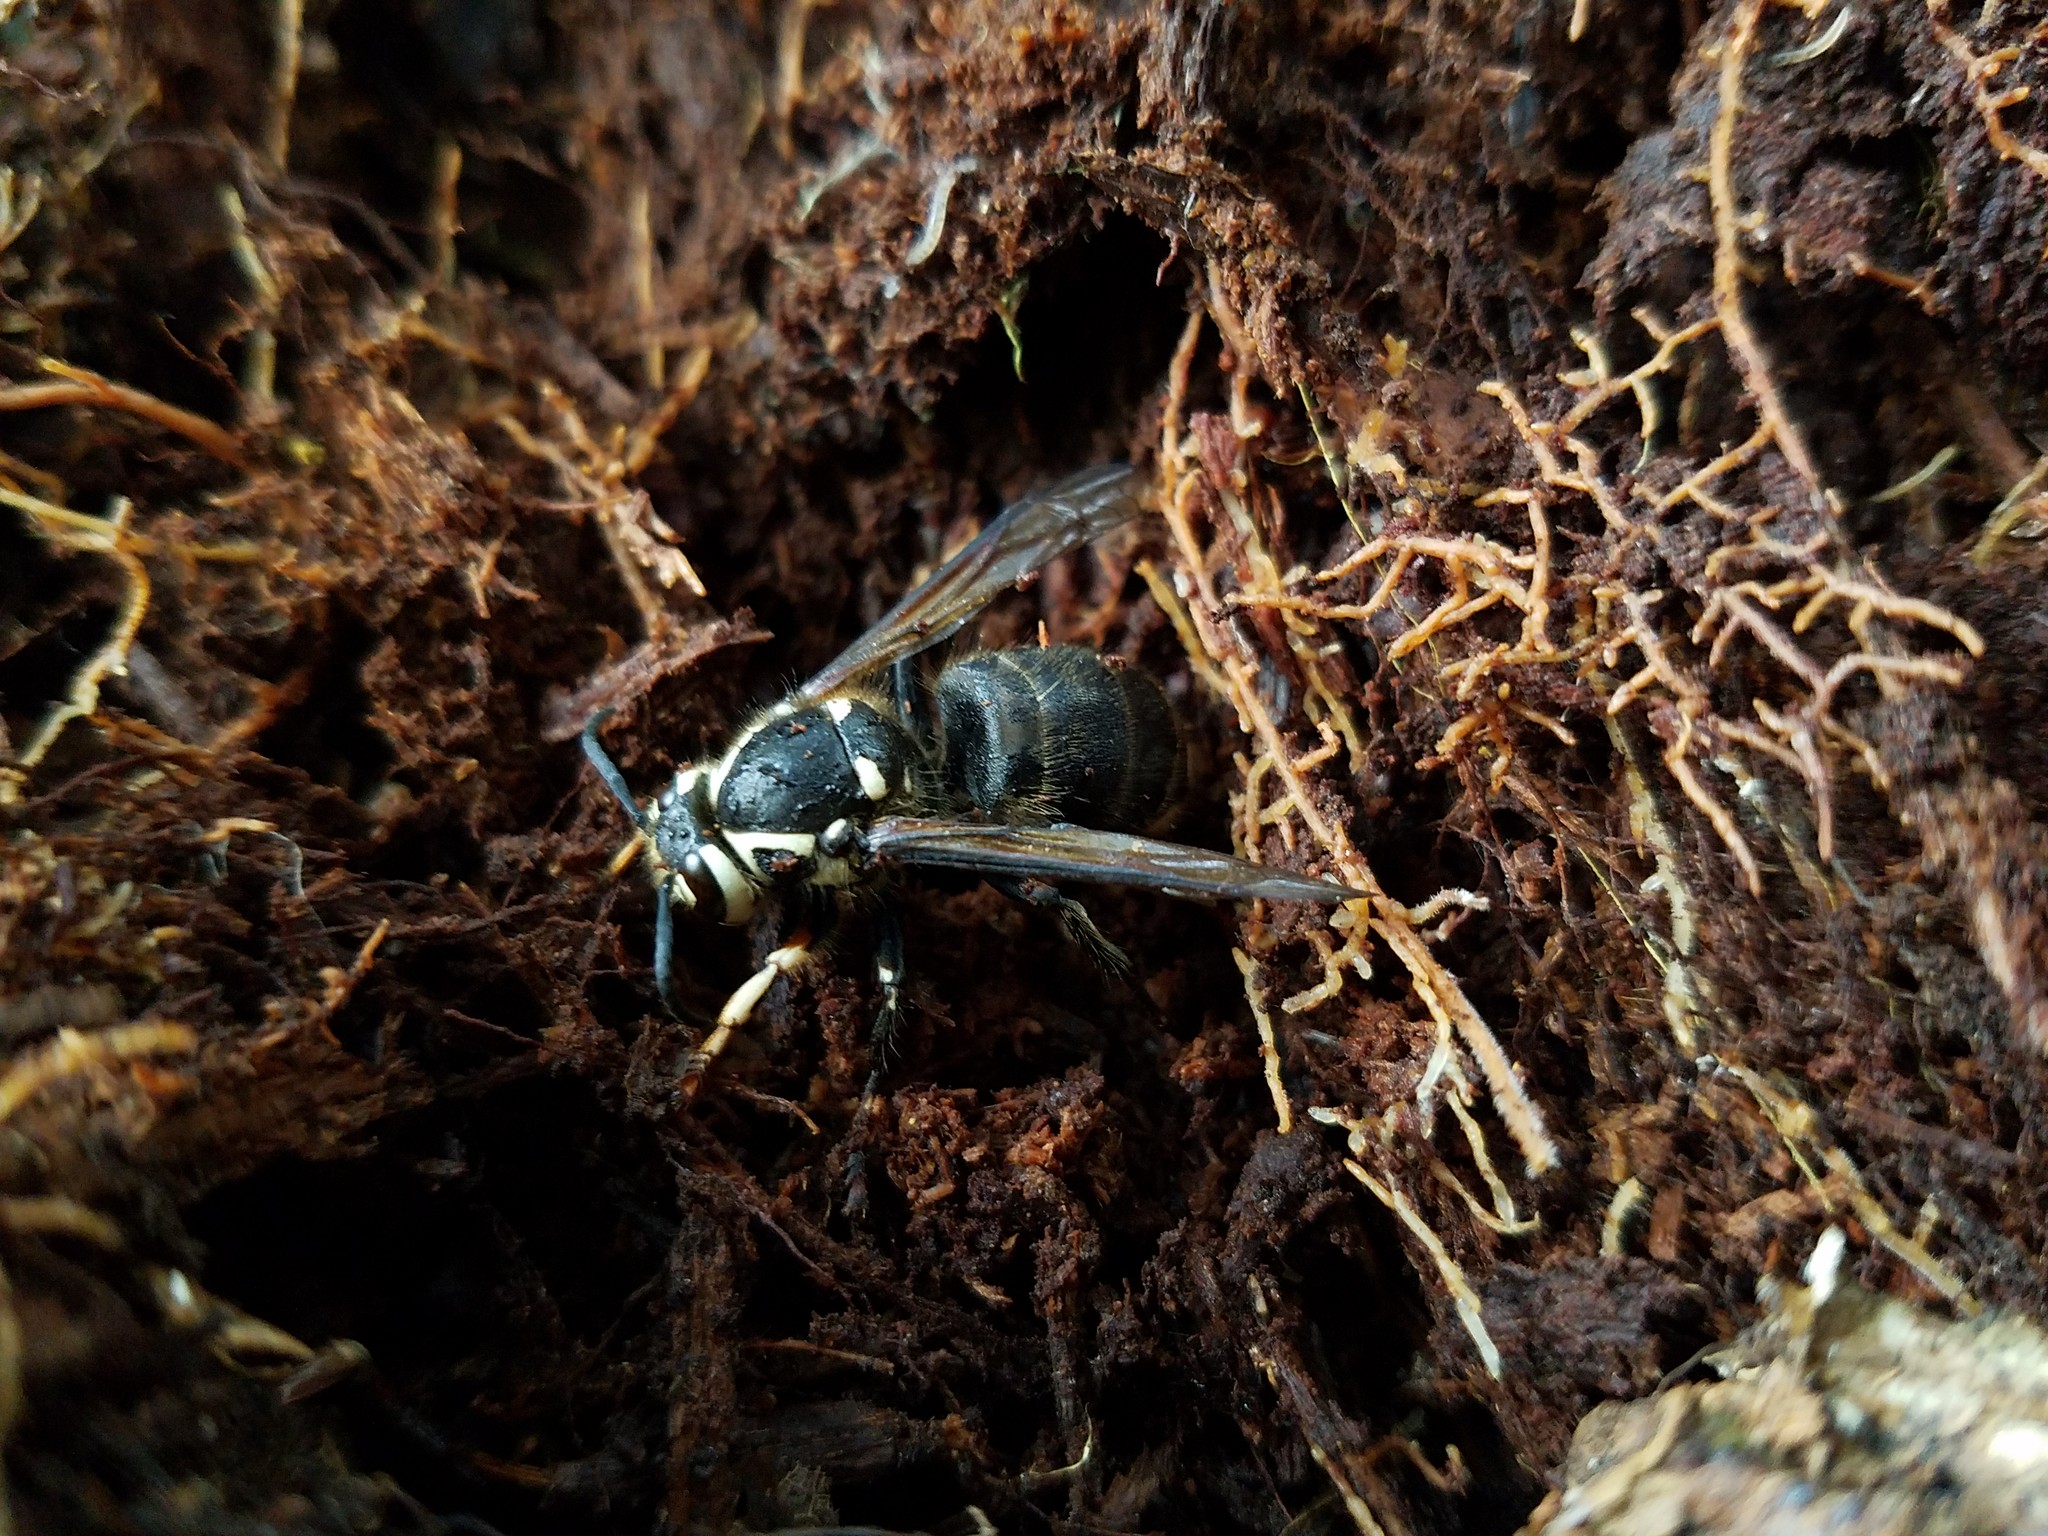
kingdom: Animalia
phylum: Arthropoda
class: Insecta
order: Hymenoptera
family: Vespidae
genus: Dolichovespula
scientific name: Dolichovespula maculata
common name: Bald-faced hornet
